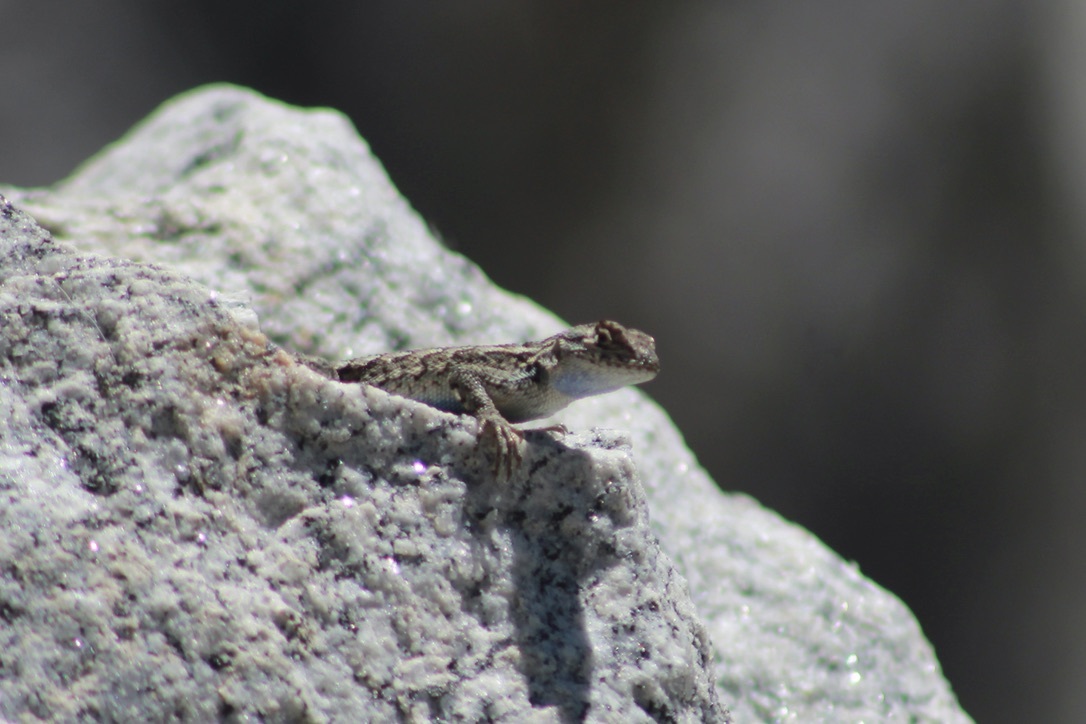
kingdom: Animalia
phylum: Chordata
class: Squamata
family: Phrynosomatidae
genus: Sceloporus
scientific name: Sceloporus occidentalis
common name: Western fence lizard
